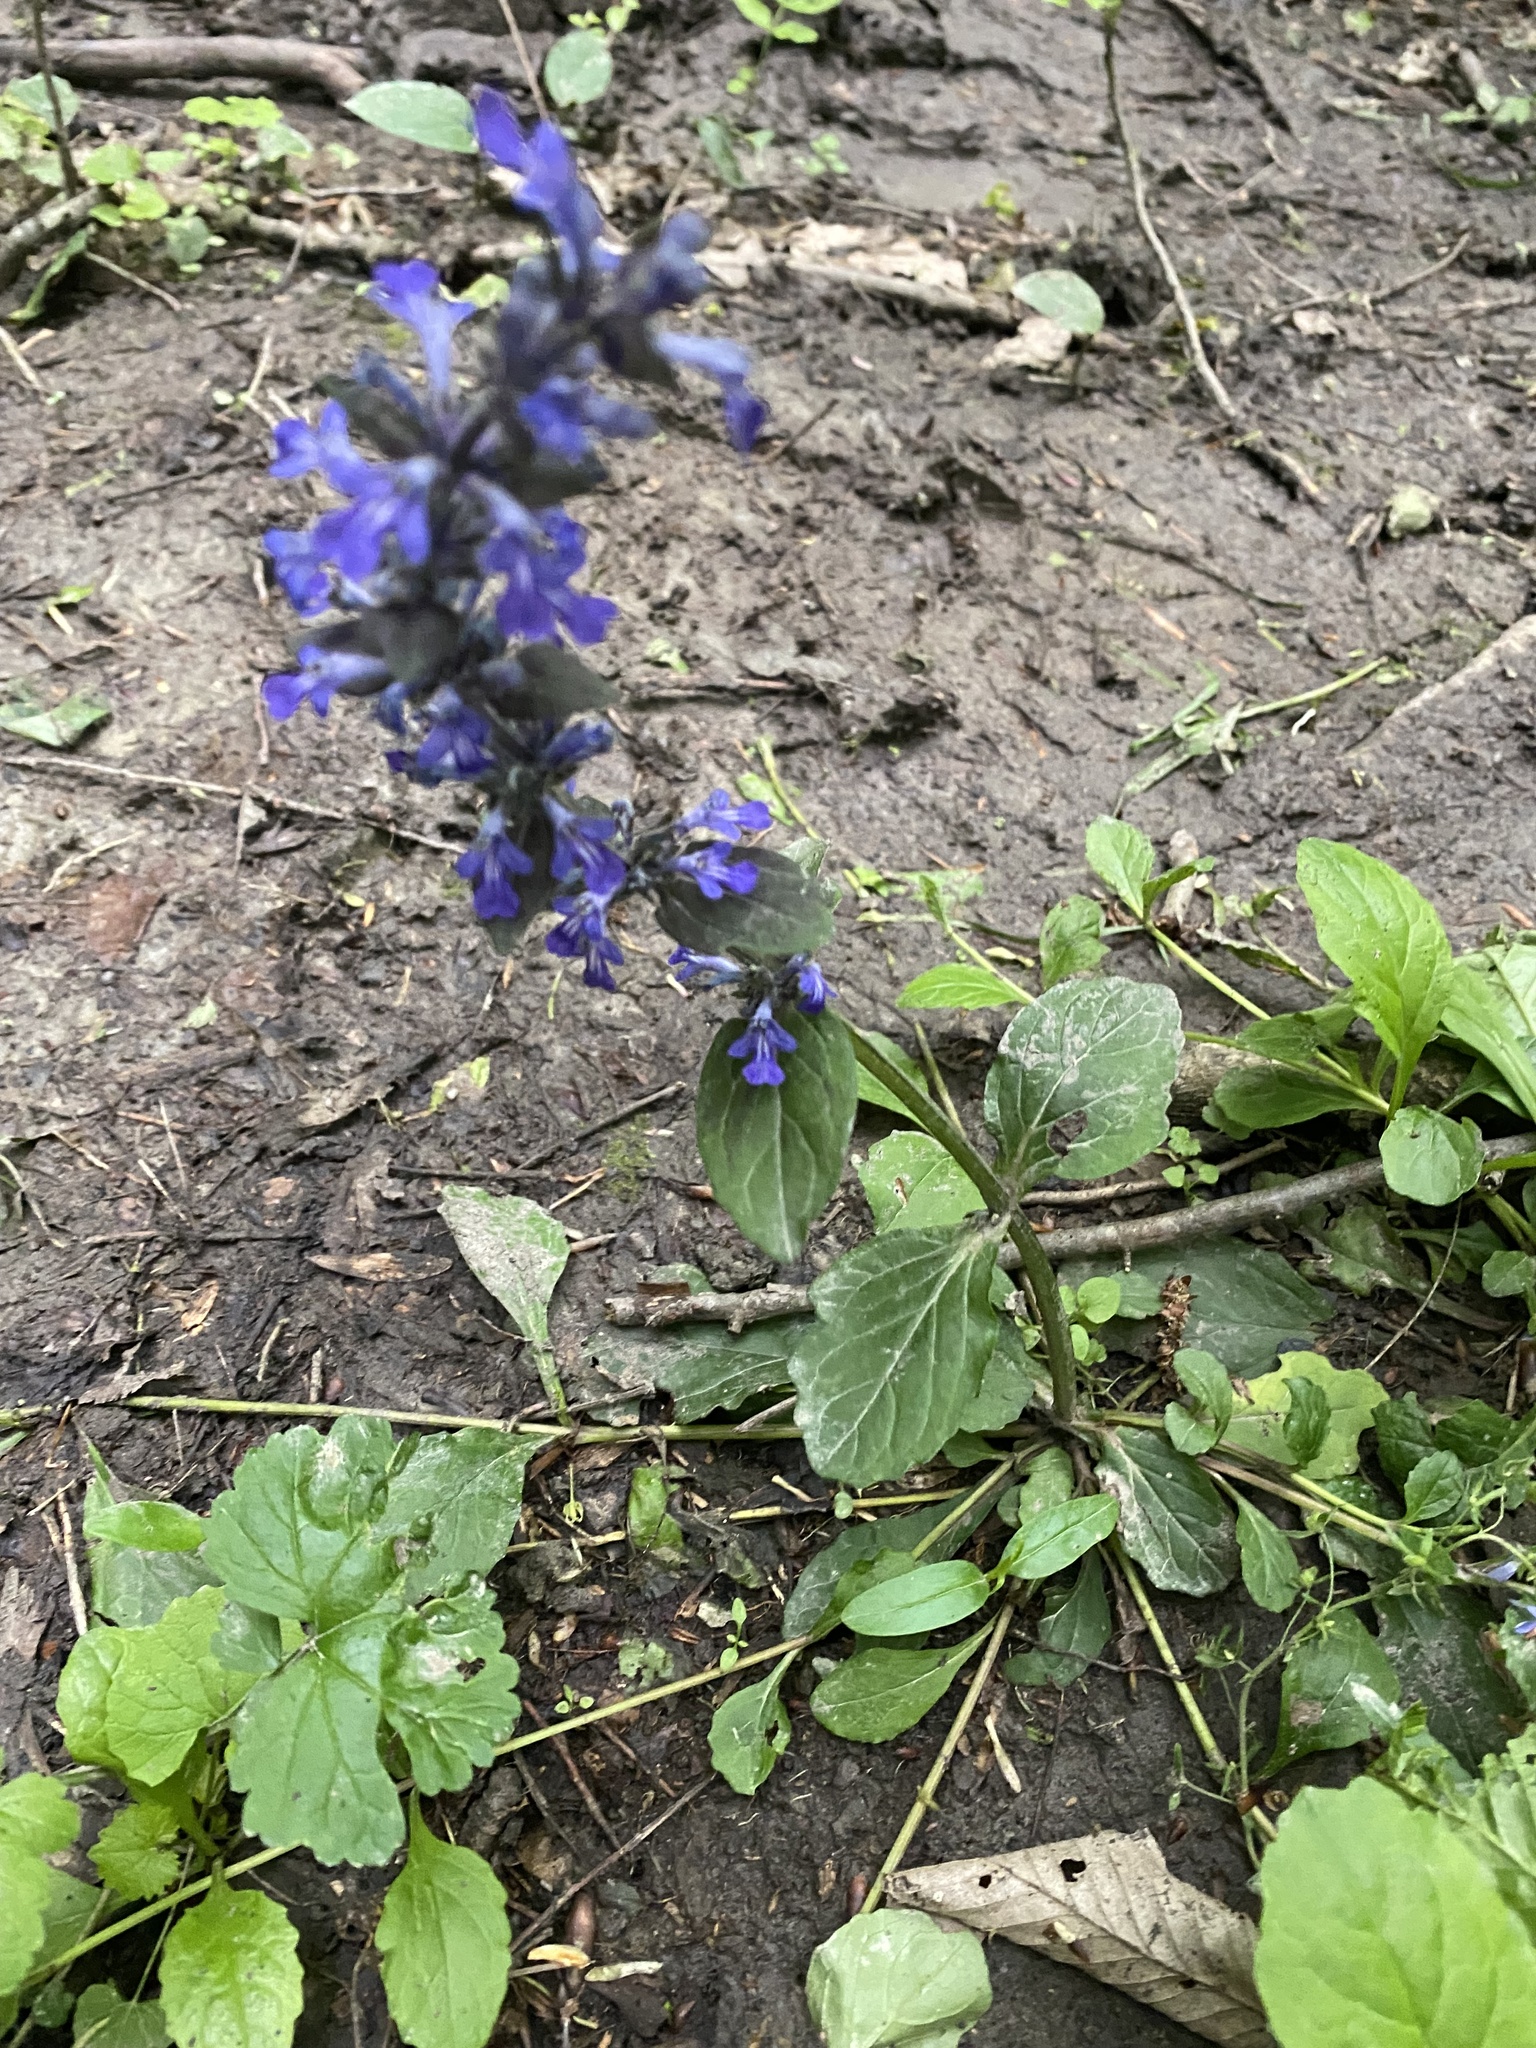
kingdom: Plantae
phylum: Tracheophyta
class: Magnoliopsida
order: Lamiales
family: Lamiaceae
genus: Ajuga
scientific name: Ajuga reptans
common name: Bugle
